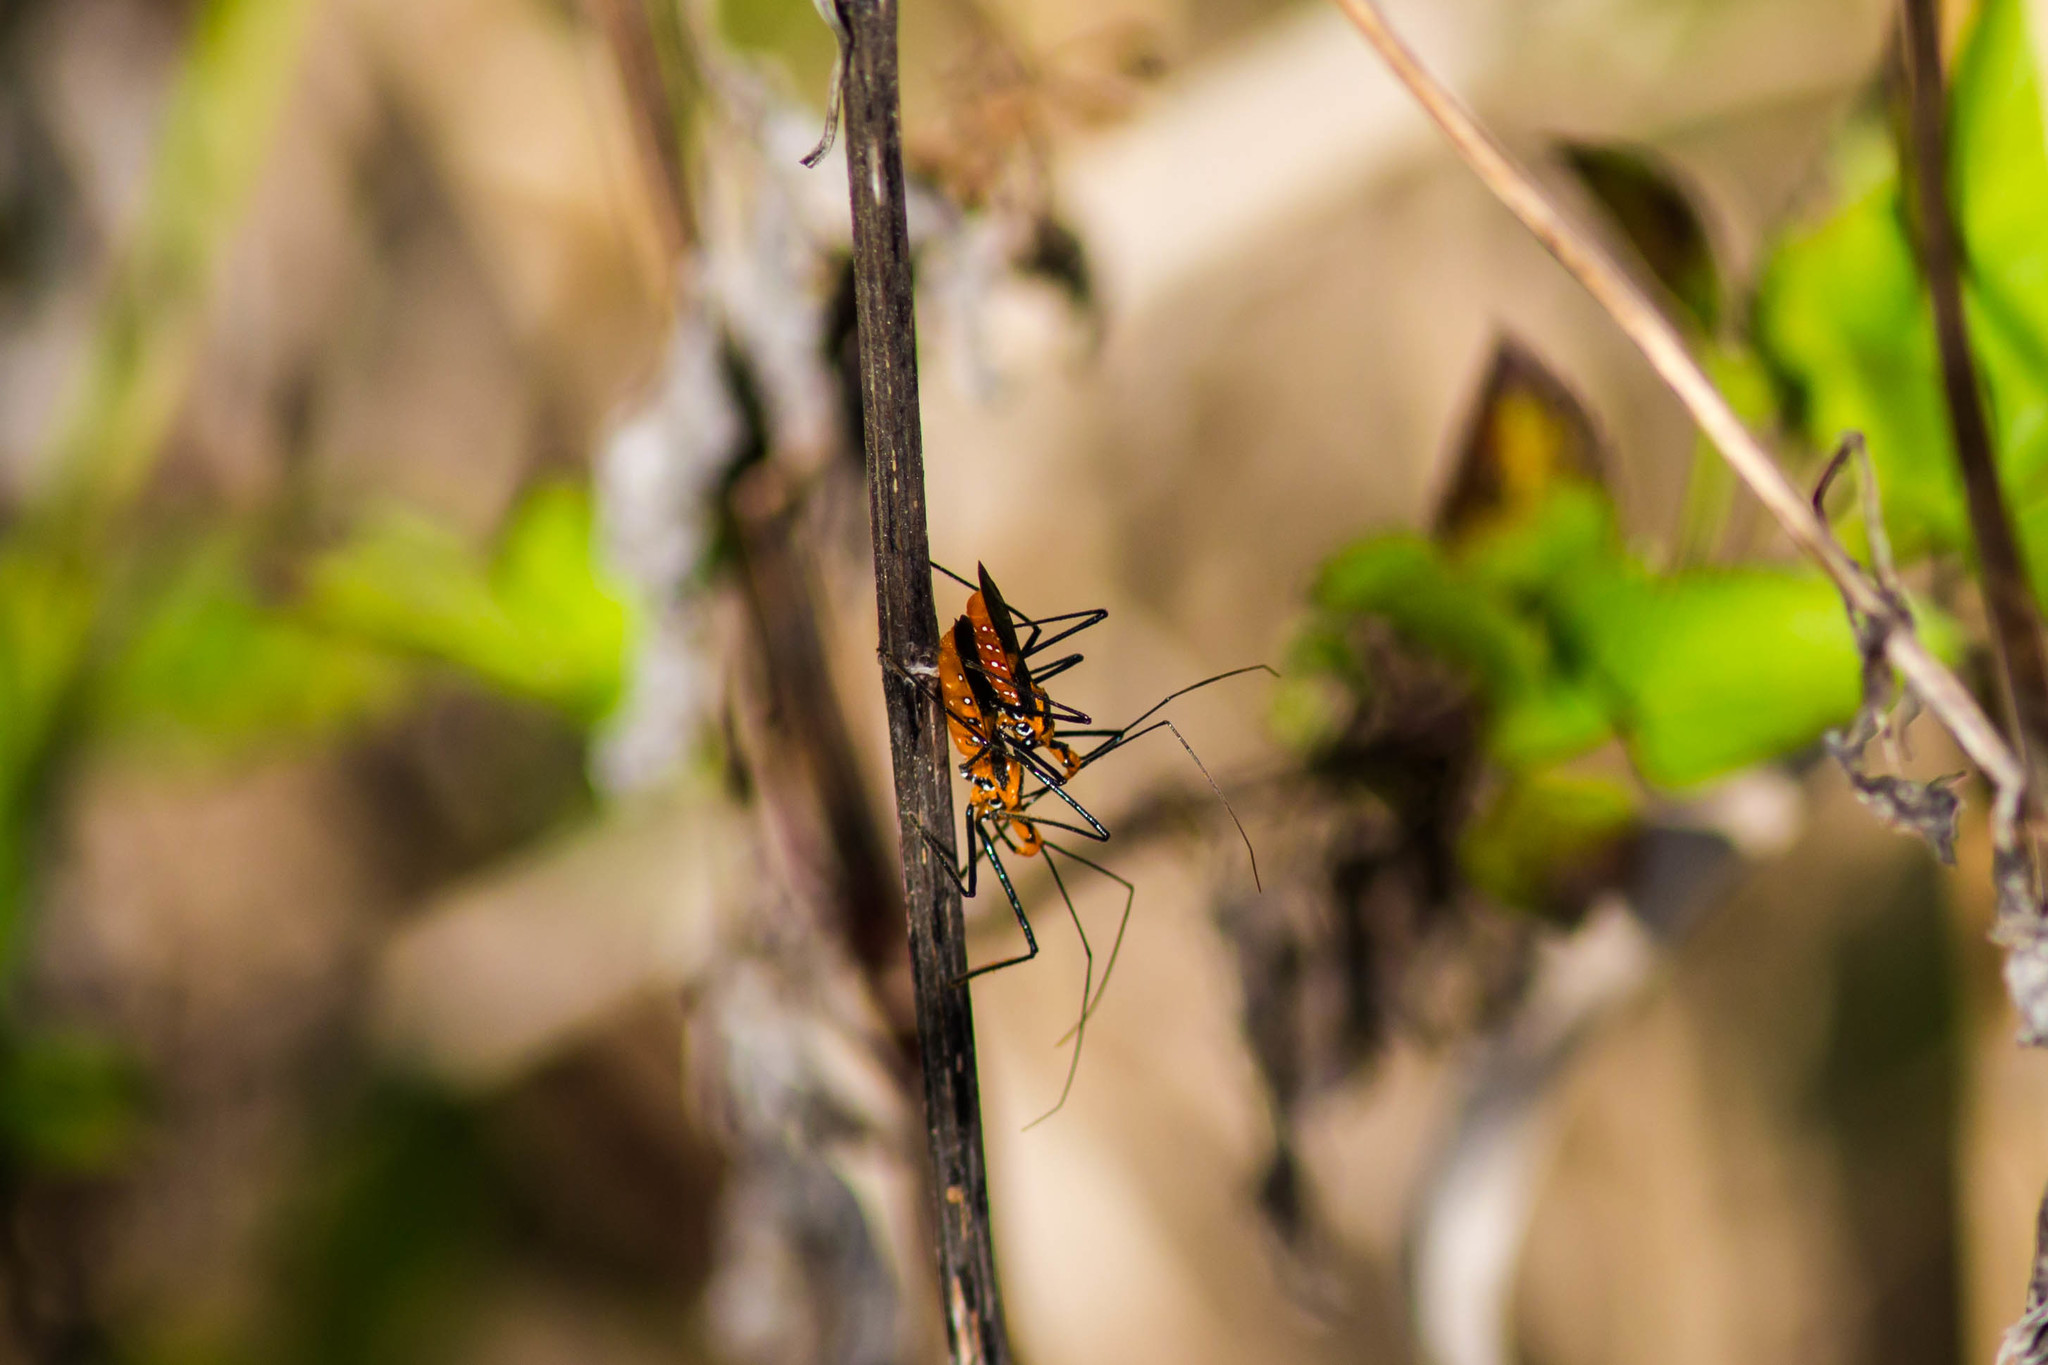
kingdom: Animalia
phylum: Arthropoda
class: Insecta
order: Hemiptera
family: Reduviidae
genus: Zelus
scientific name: Zelus longipes
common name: Milkweed assassin bug
